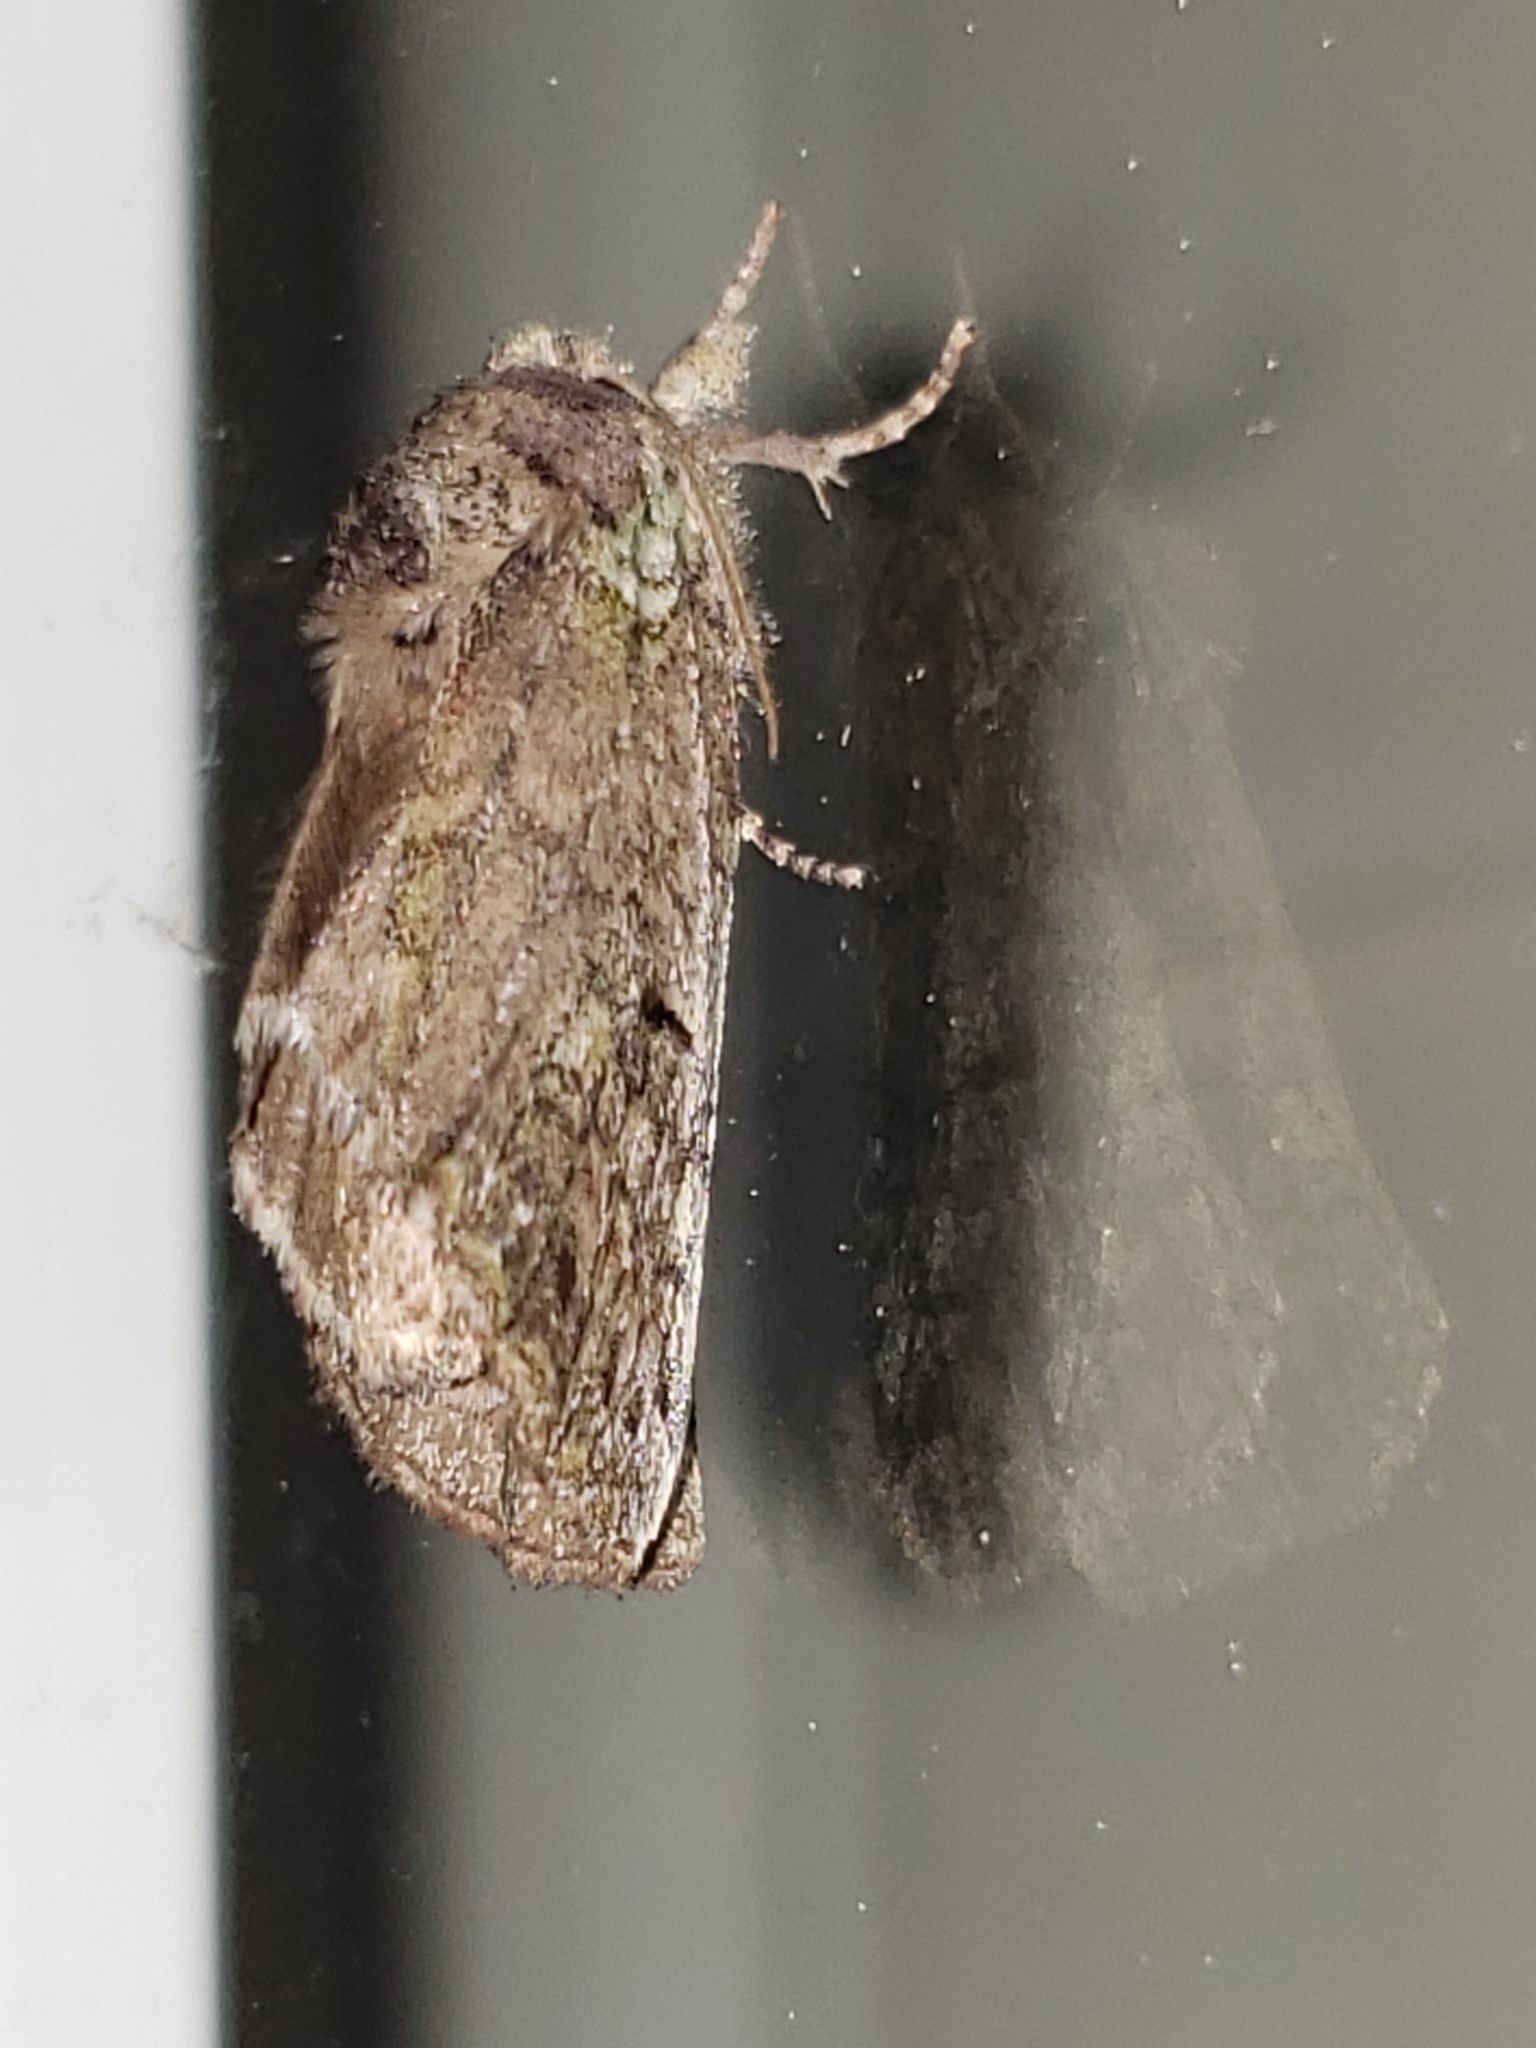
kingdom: Animalia
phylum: Arthropoda
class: Insecta
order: Lepidoptera
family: Notodontidae
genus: Schizura
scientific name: Schizura
